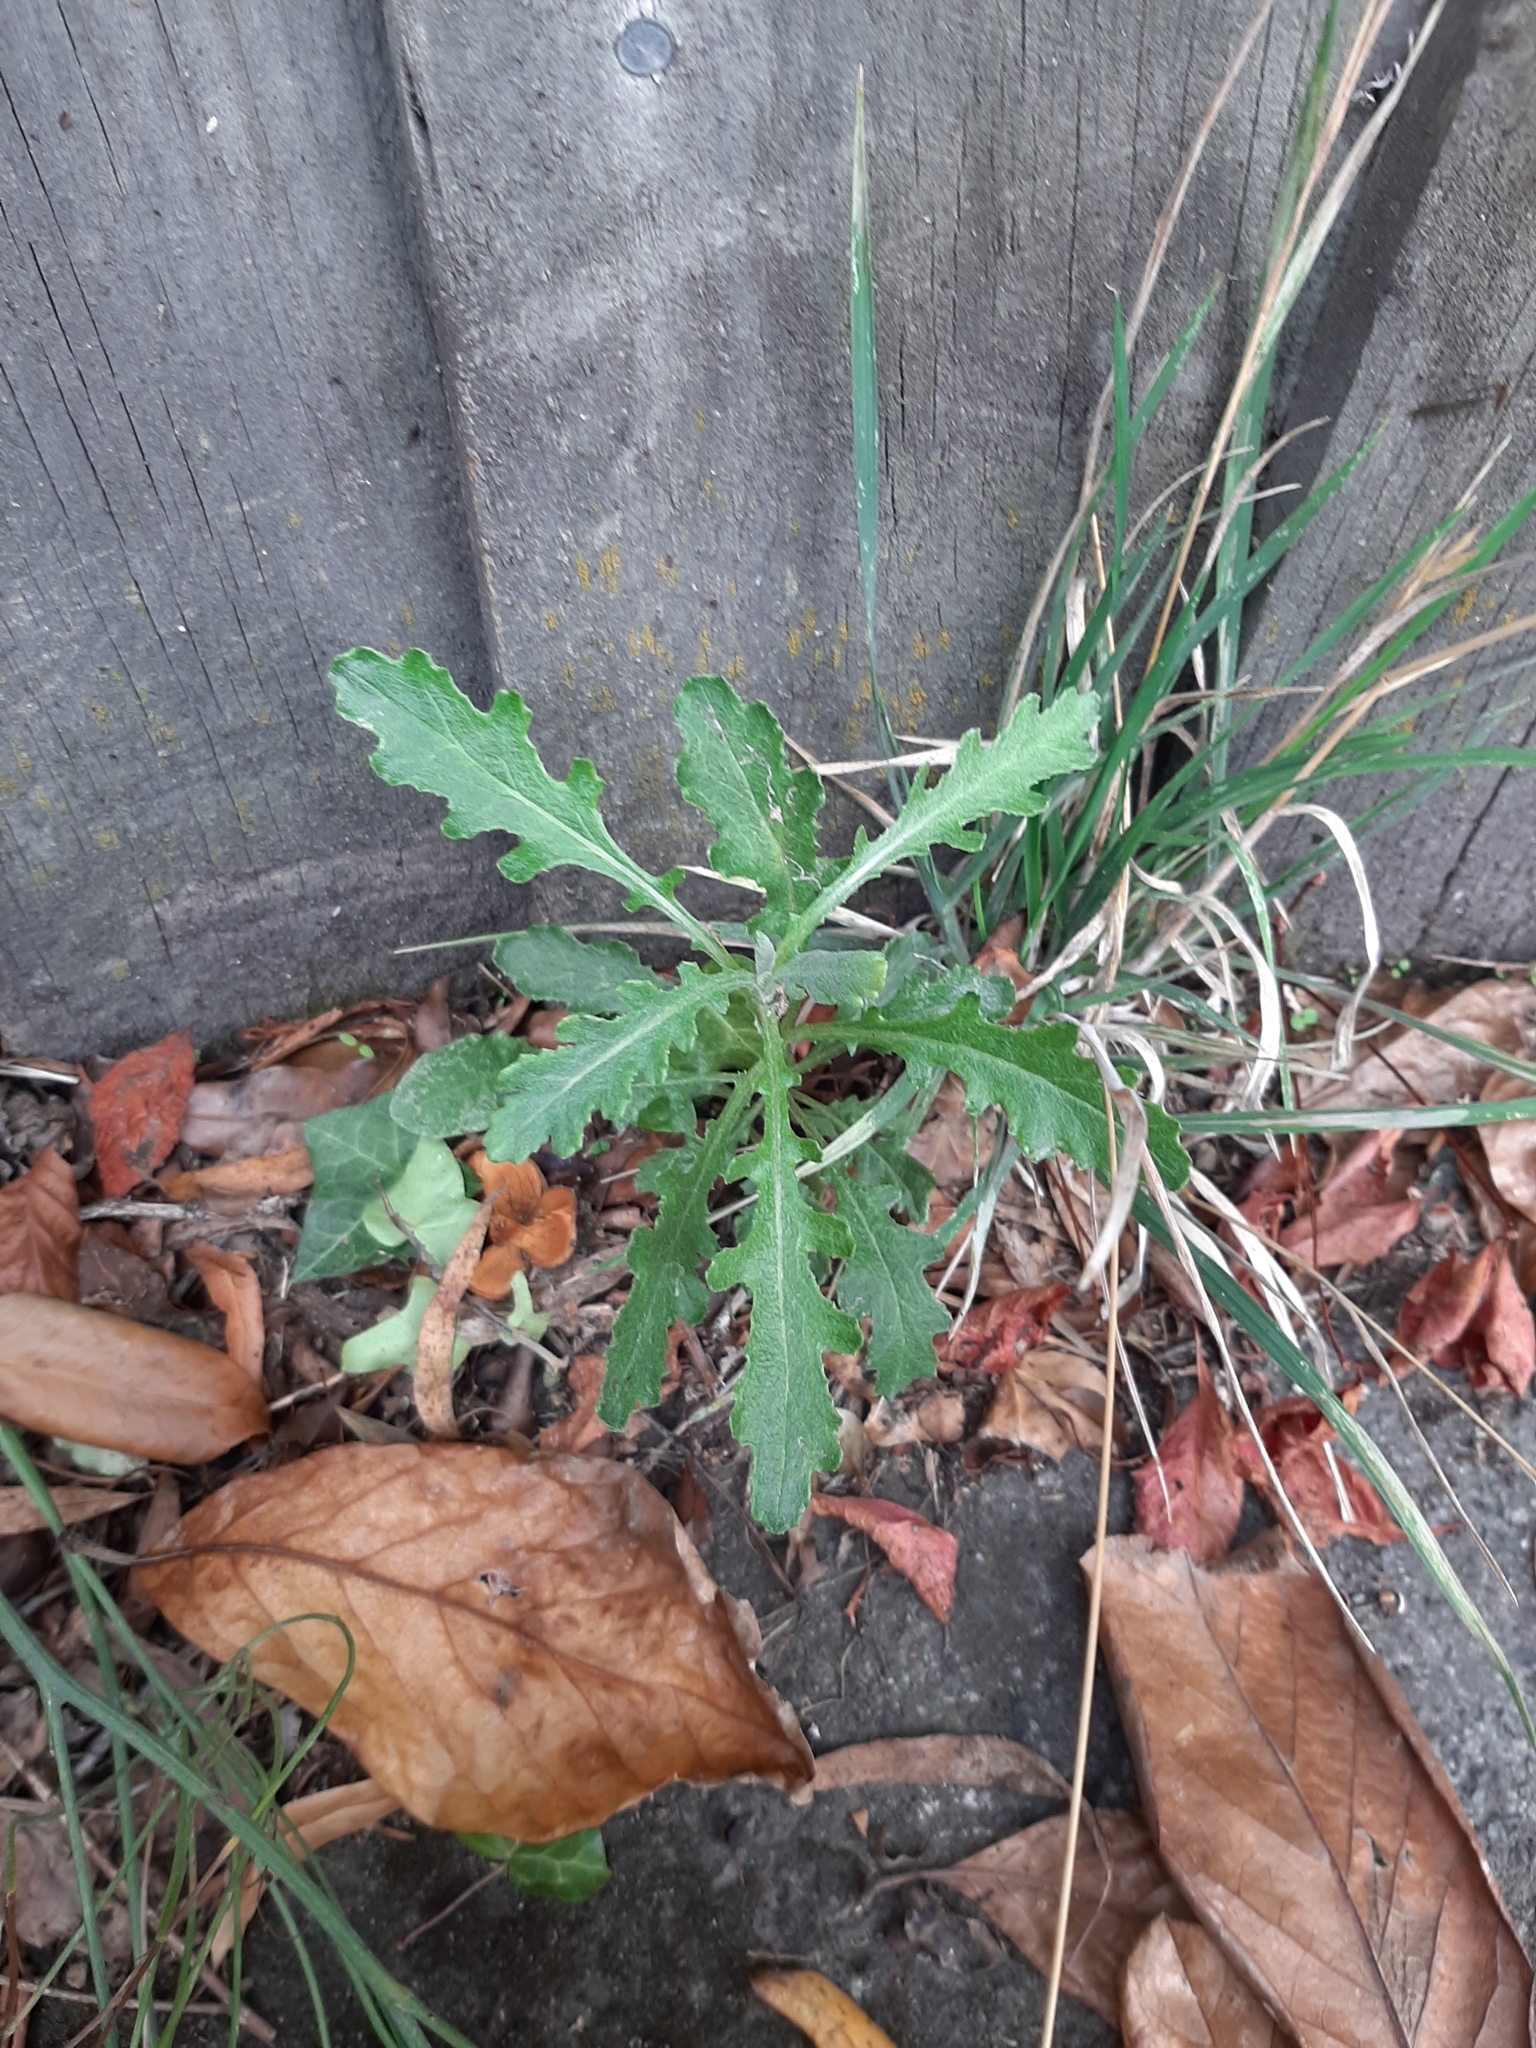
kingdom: Plantae
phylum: Tracheophyta
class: Magnoliopsida
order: Asterales
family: Asteraceae
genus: Senecio
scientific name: Senecio glomeratus
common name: Cutleaf burnweed
